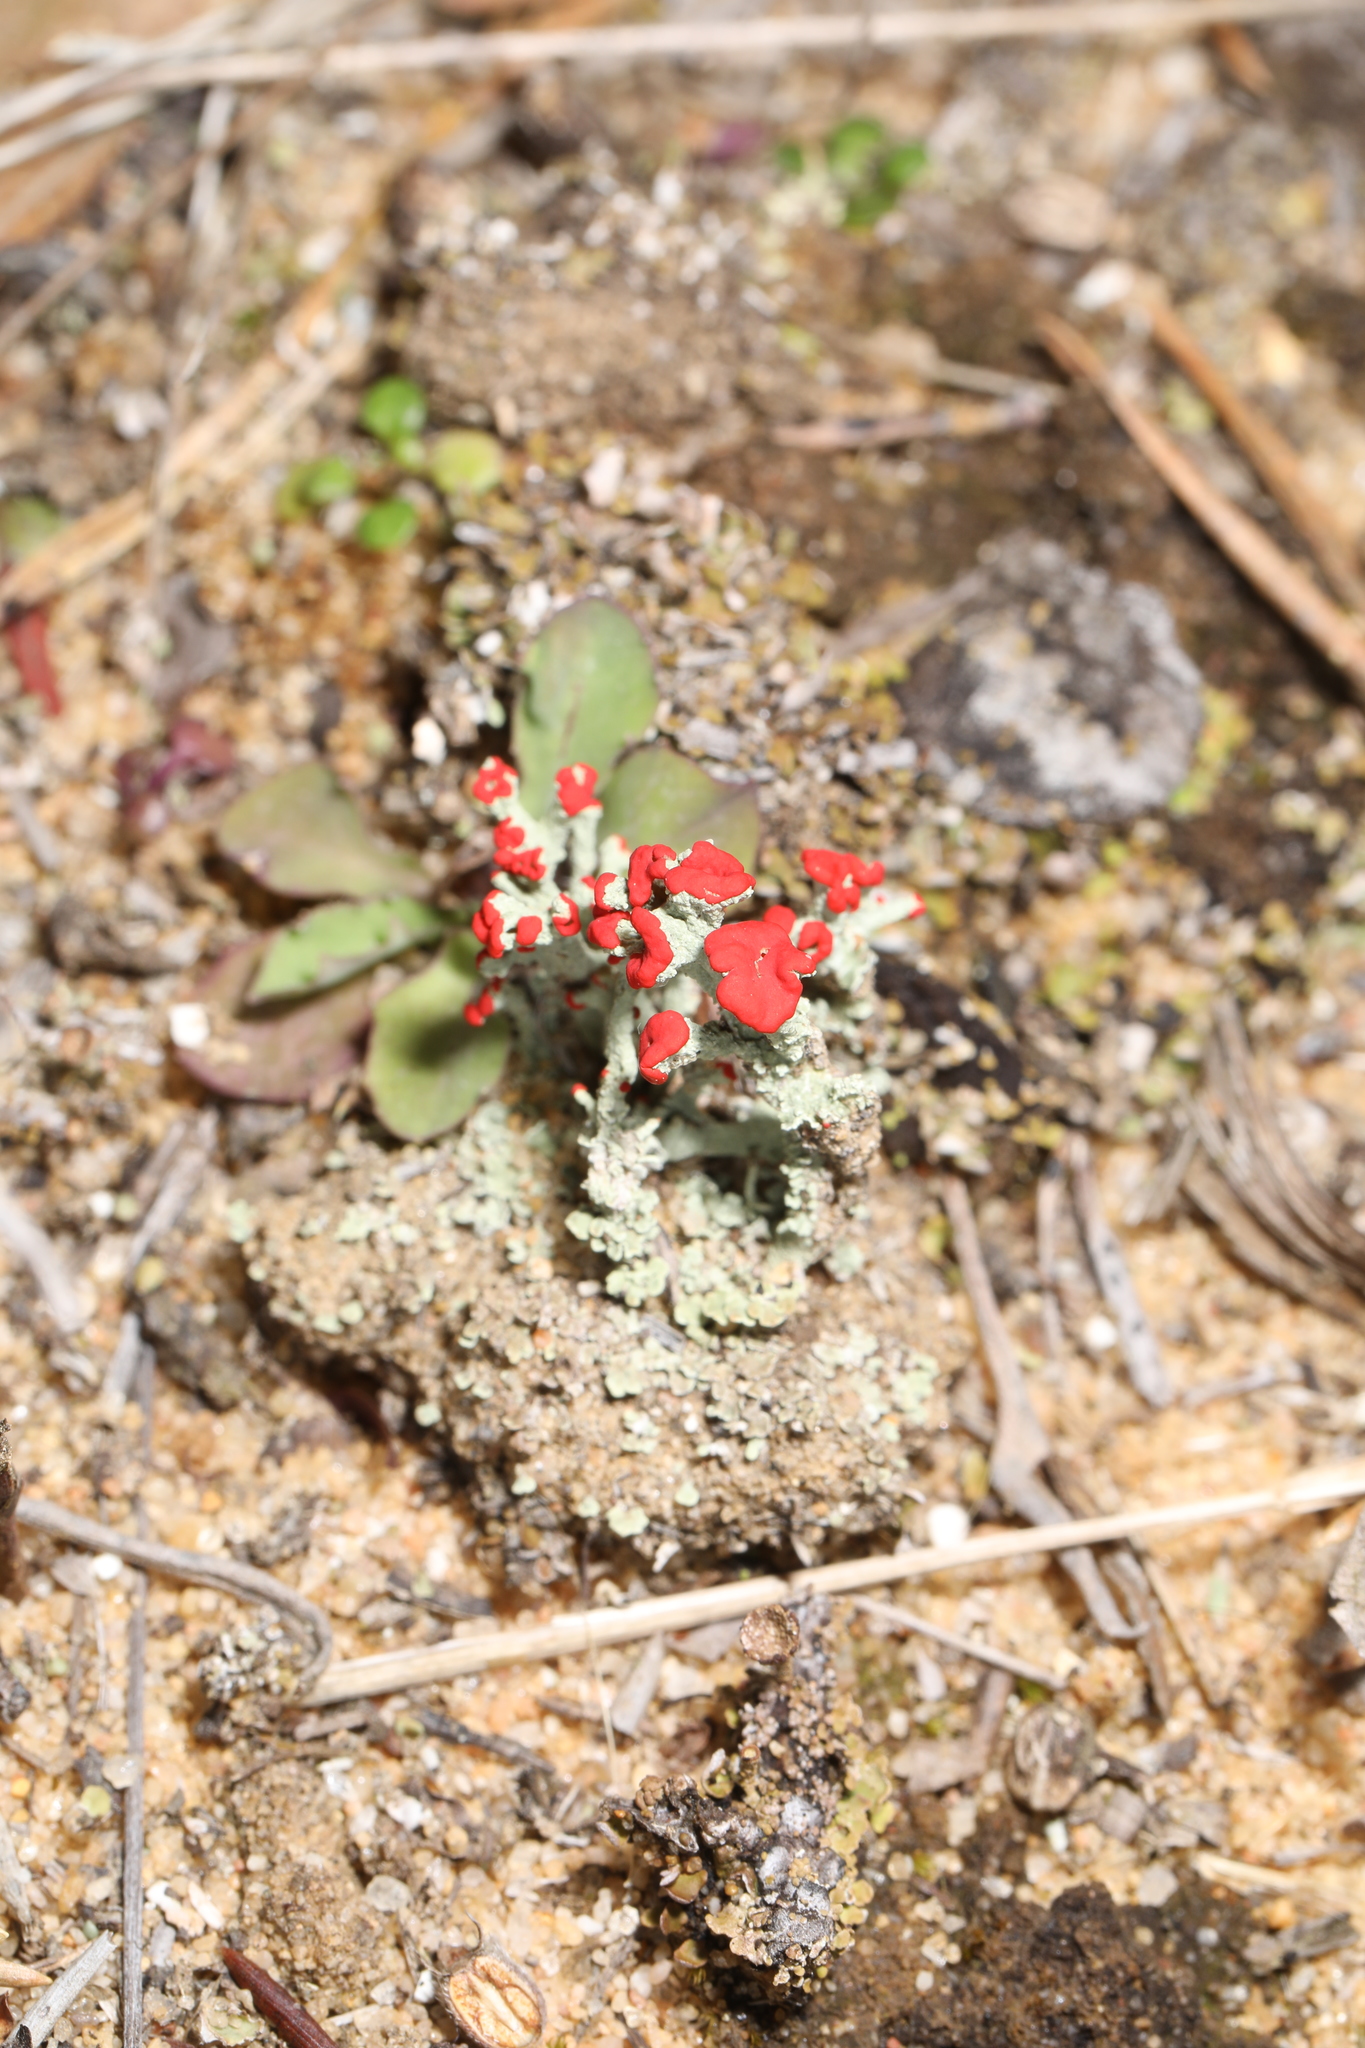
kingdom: Fungi
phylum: Ascomycota
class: Lecanoromycetes
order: Lecanorales
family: Cladoniaceae
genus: Cladonia
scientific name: Cladonia cristatella
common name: British soldier lichen
